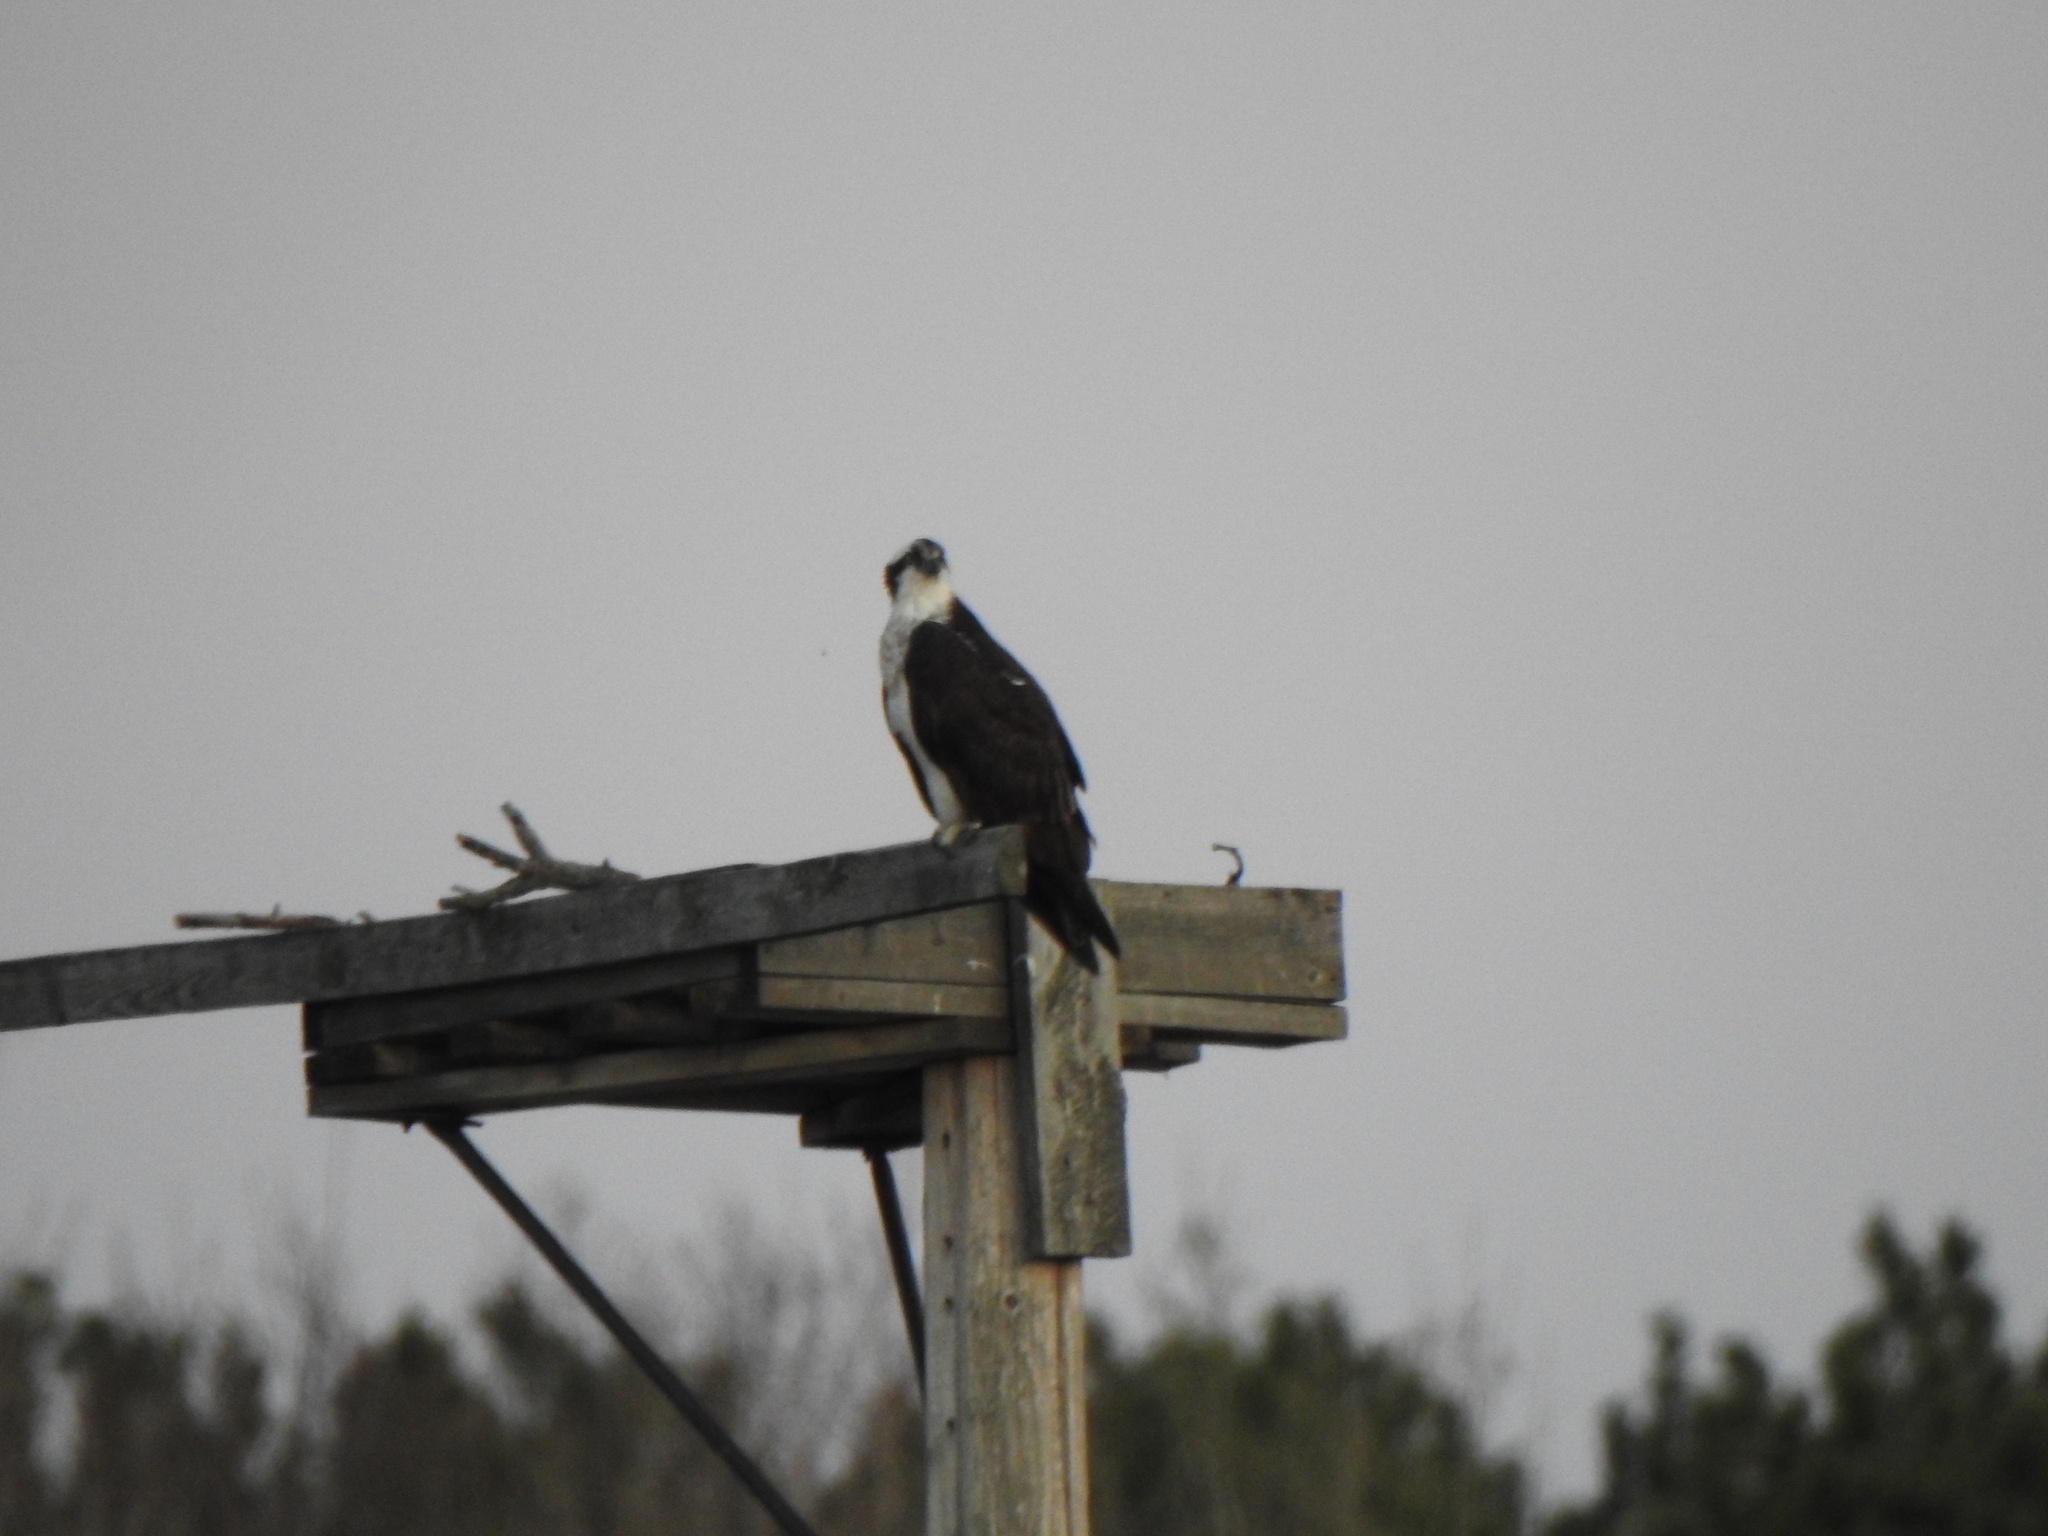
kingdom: Animalia
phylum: Chordata
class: Aves
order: Accipitriformes
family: Pandionidae
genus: Pandion
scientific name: Pandion haliaetus
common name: Osprey
